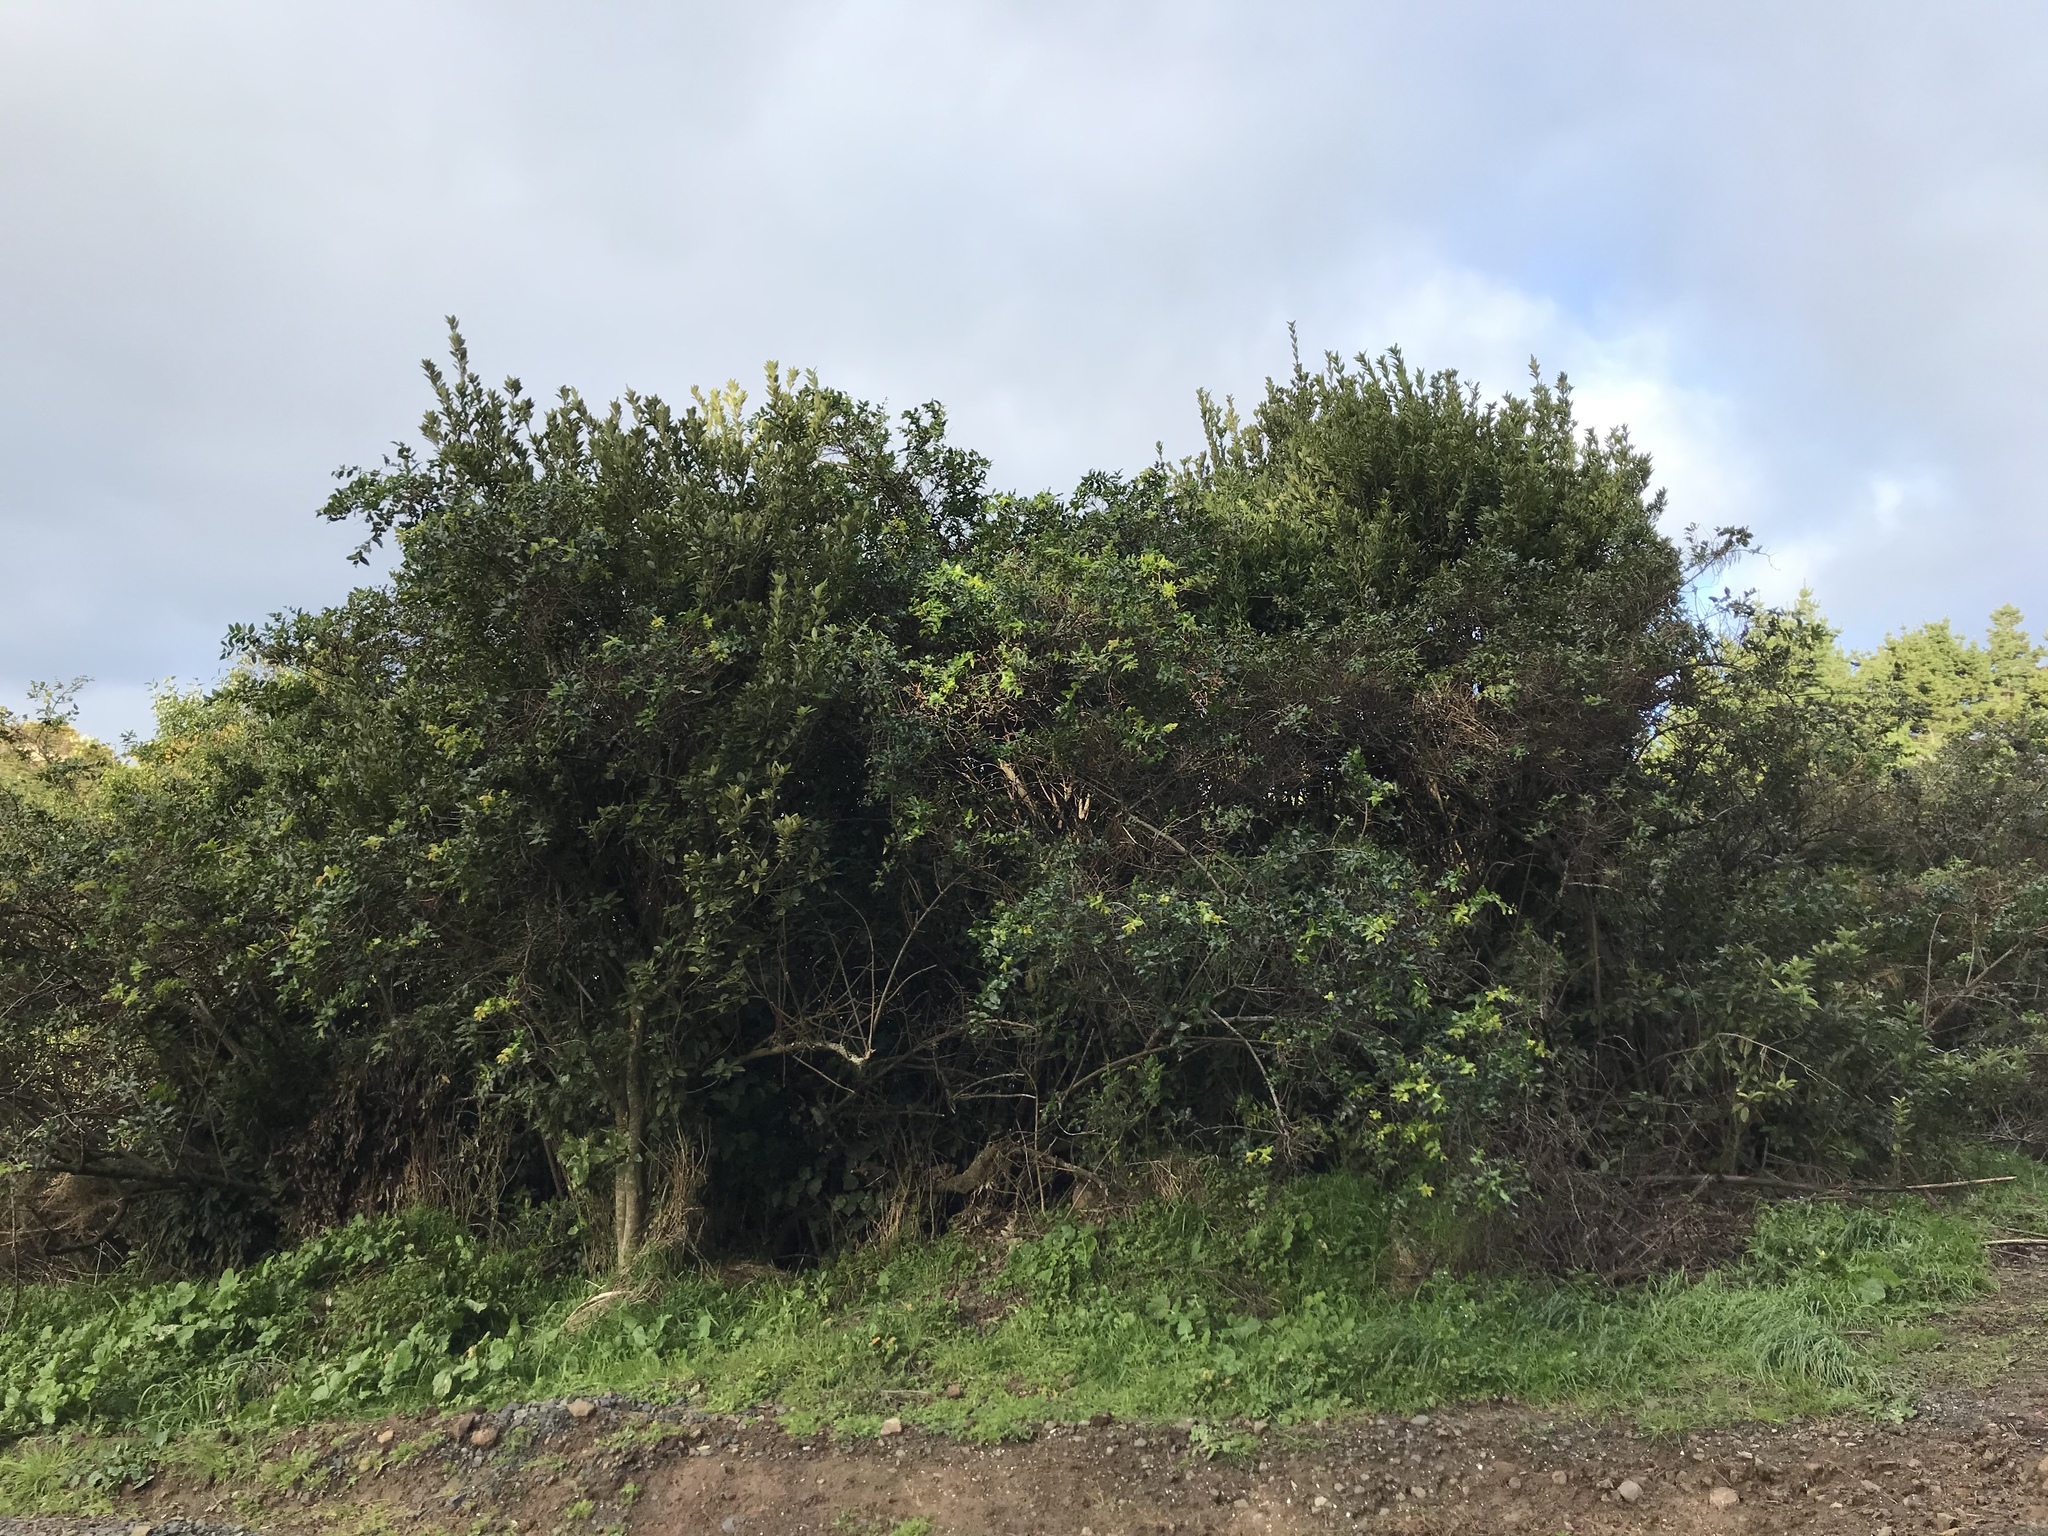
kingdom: Plantae
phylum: Tracheophyta
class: Magnoliopsida
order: Cucurbitales
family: Coriariaceae
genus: Coriaria
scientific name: Coriaria arborea
